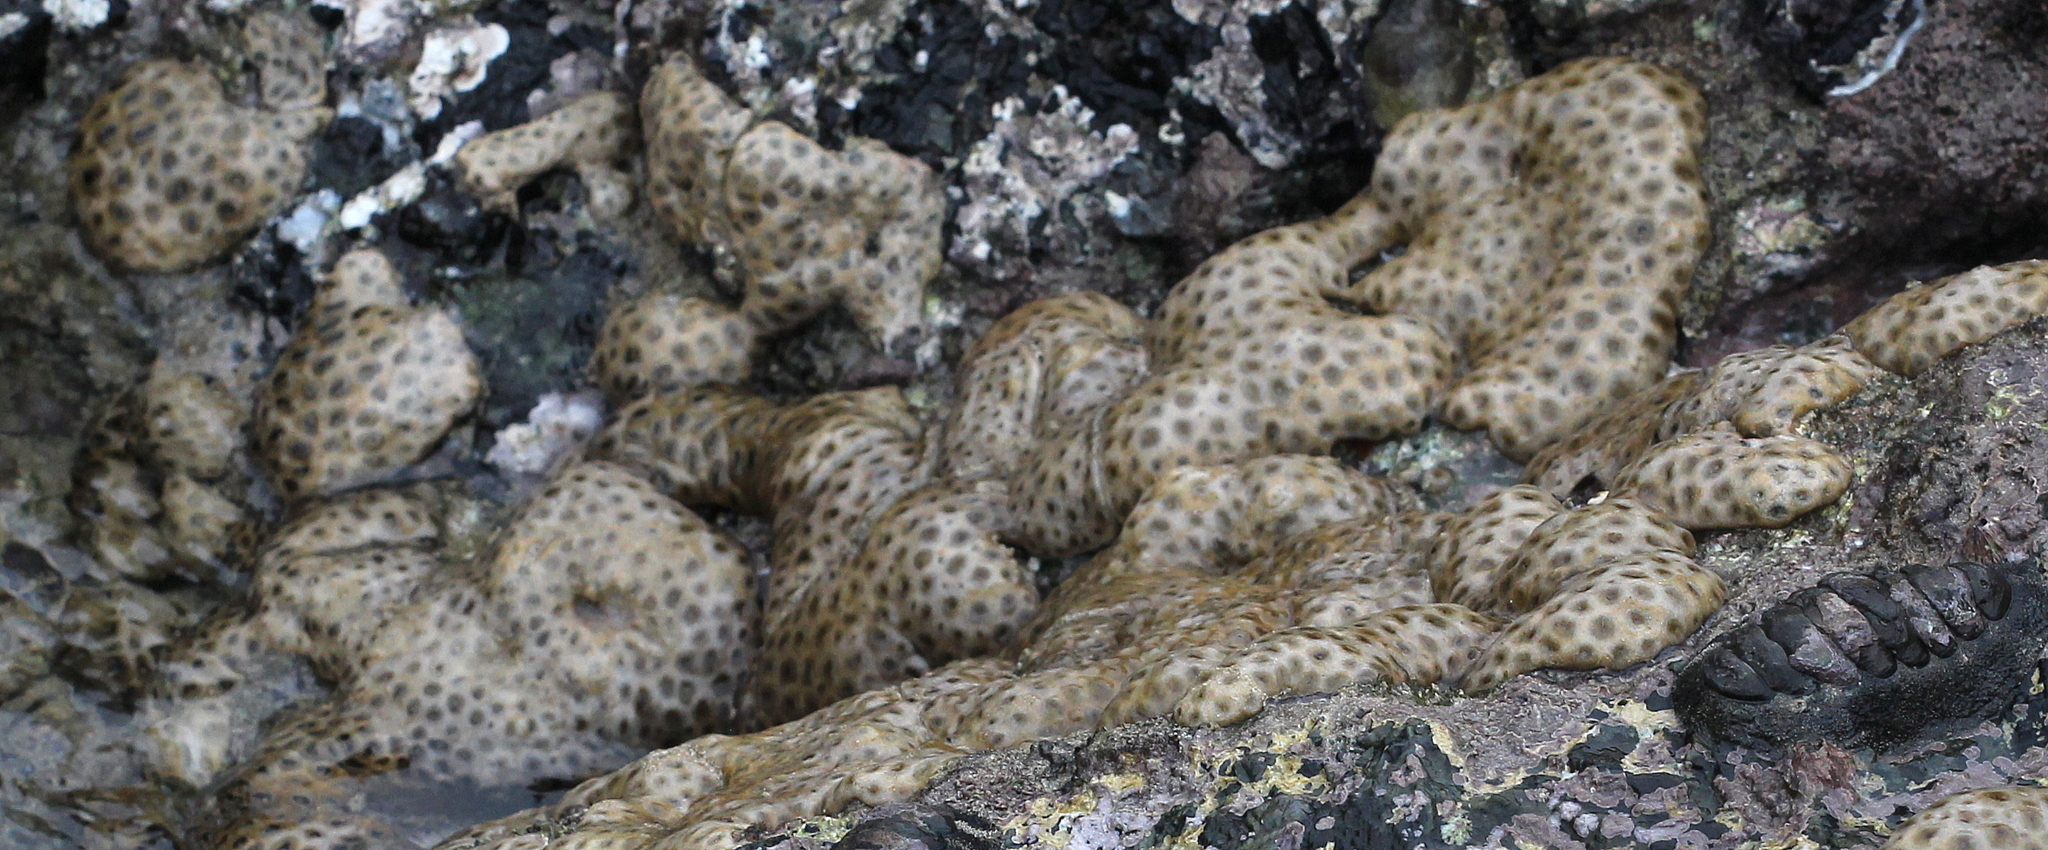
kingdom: Animalia
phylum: Cnidaria
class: Anthozoa
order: Zoantharia
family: Sphenopidae
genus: Palythoa
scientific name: Palythoa tuberculosa
